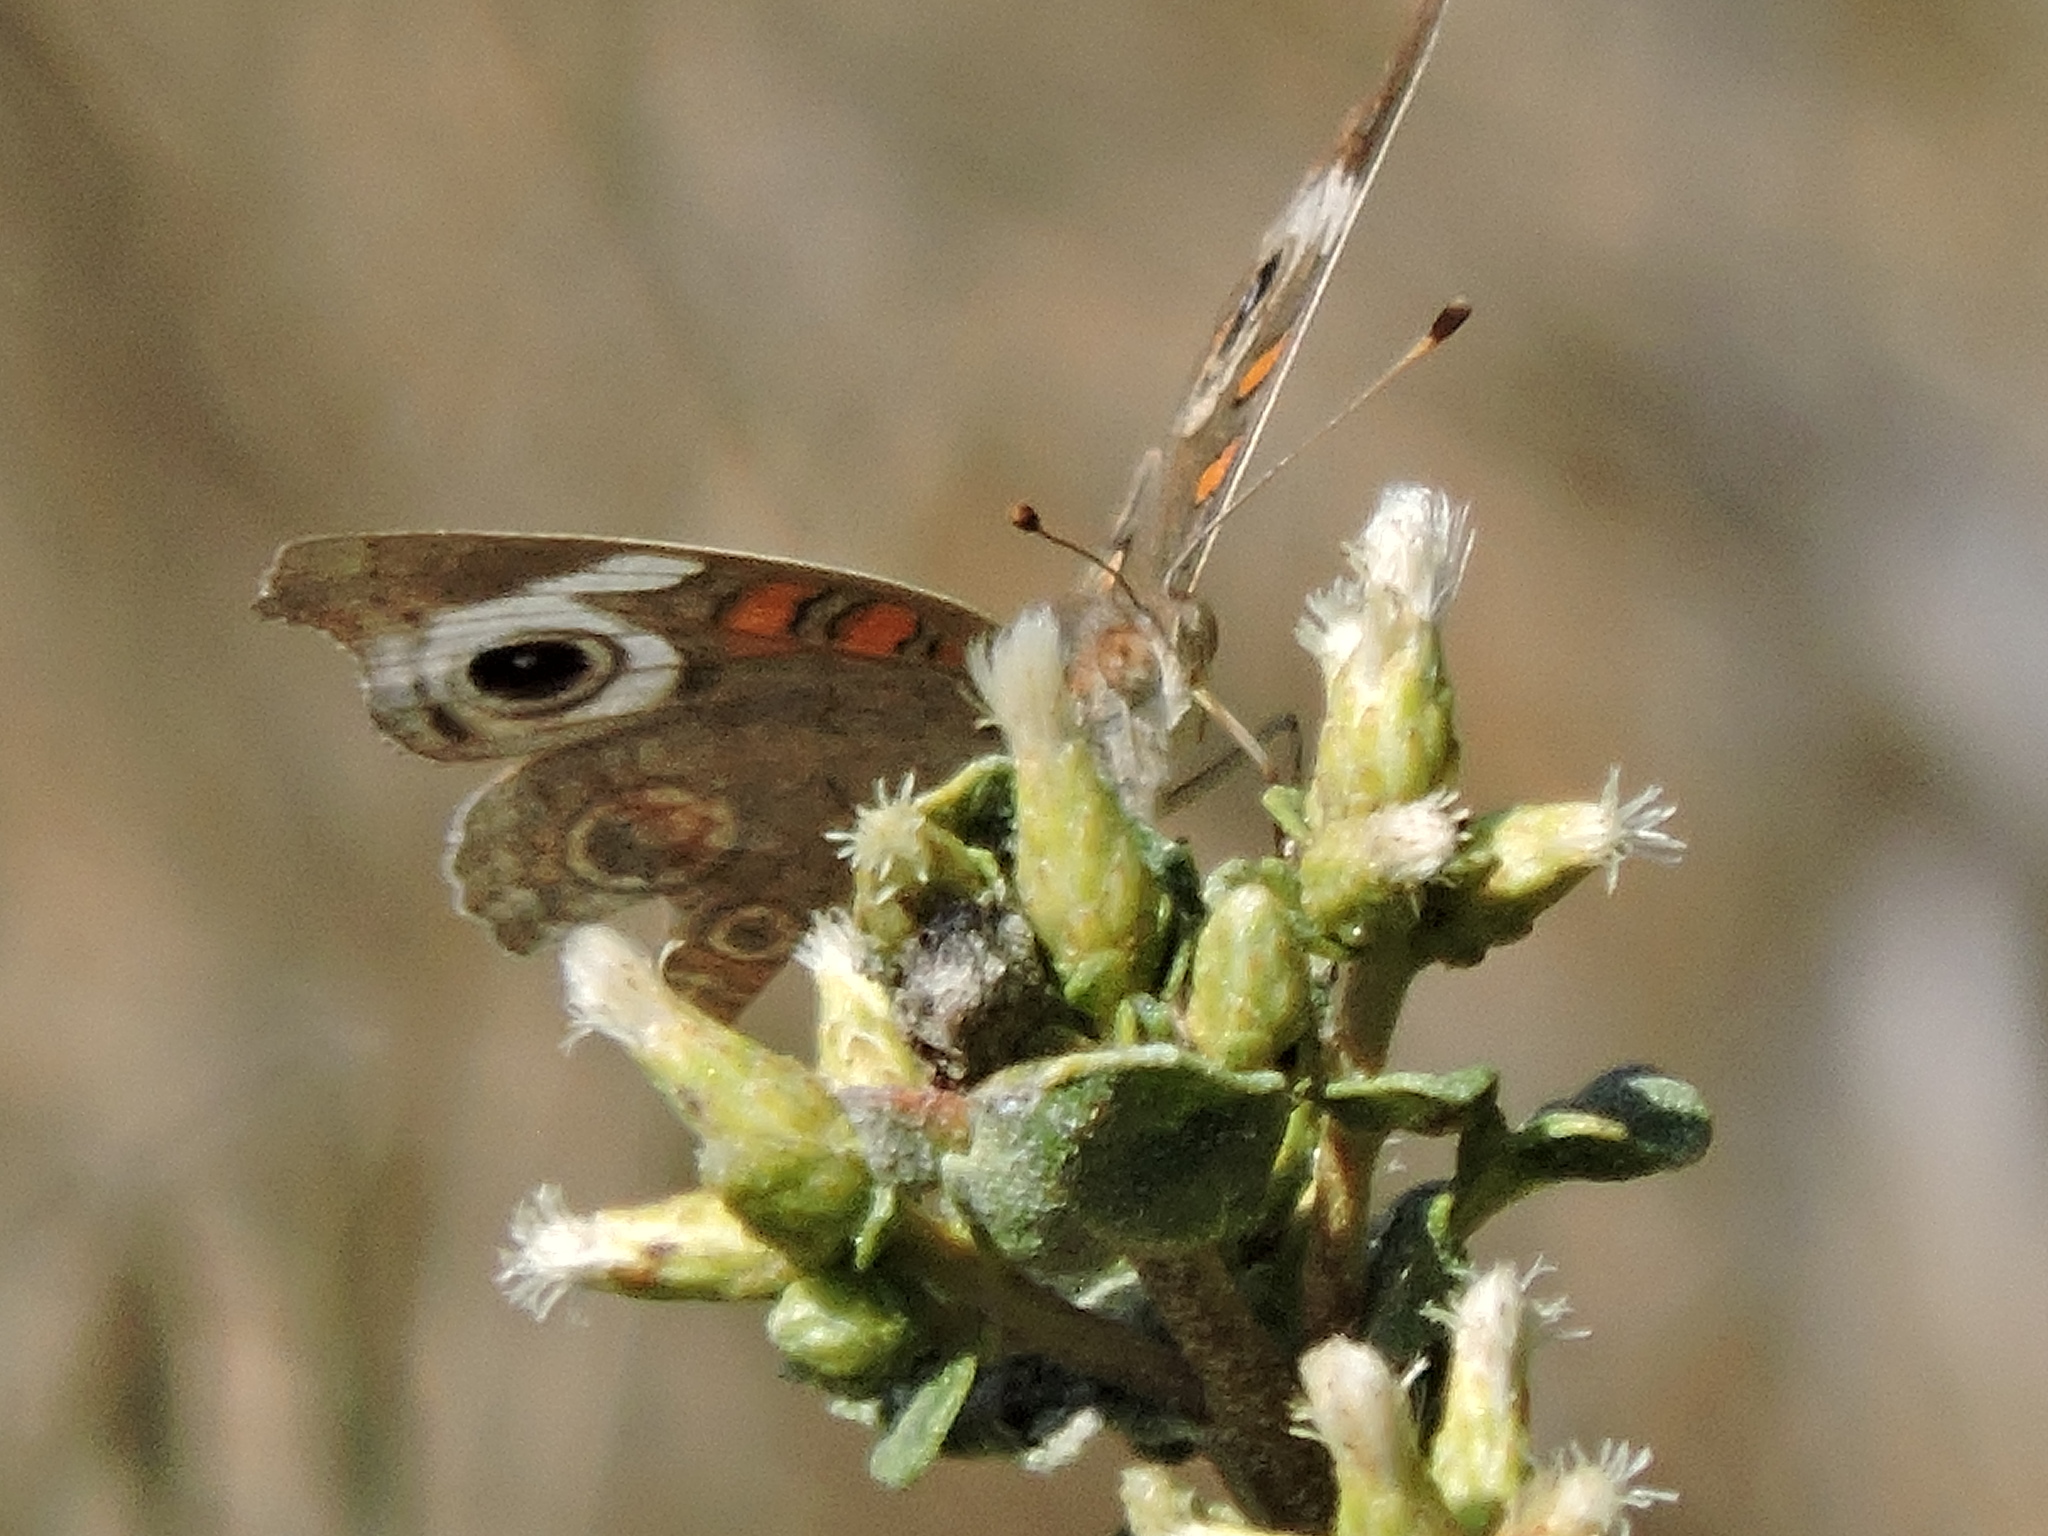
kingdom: Animalia
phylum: Arthropoda
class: Insecta
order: Lepidoptera
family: Nymphalidae
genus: Junonia
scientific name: Junonia grisea
